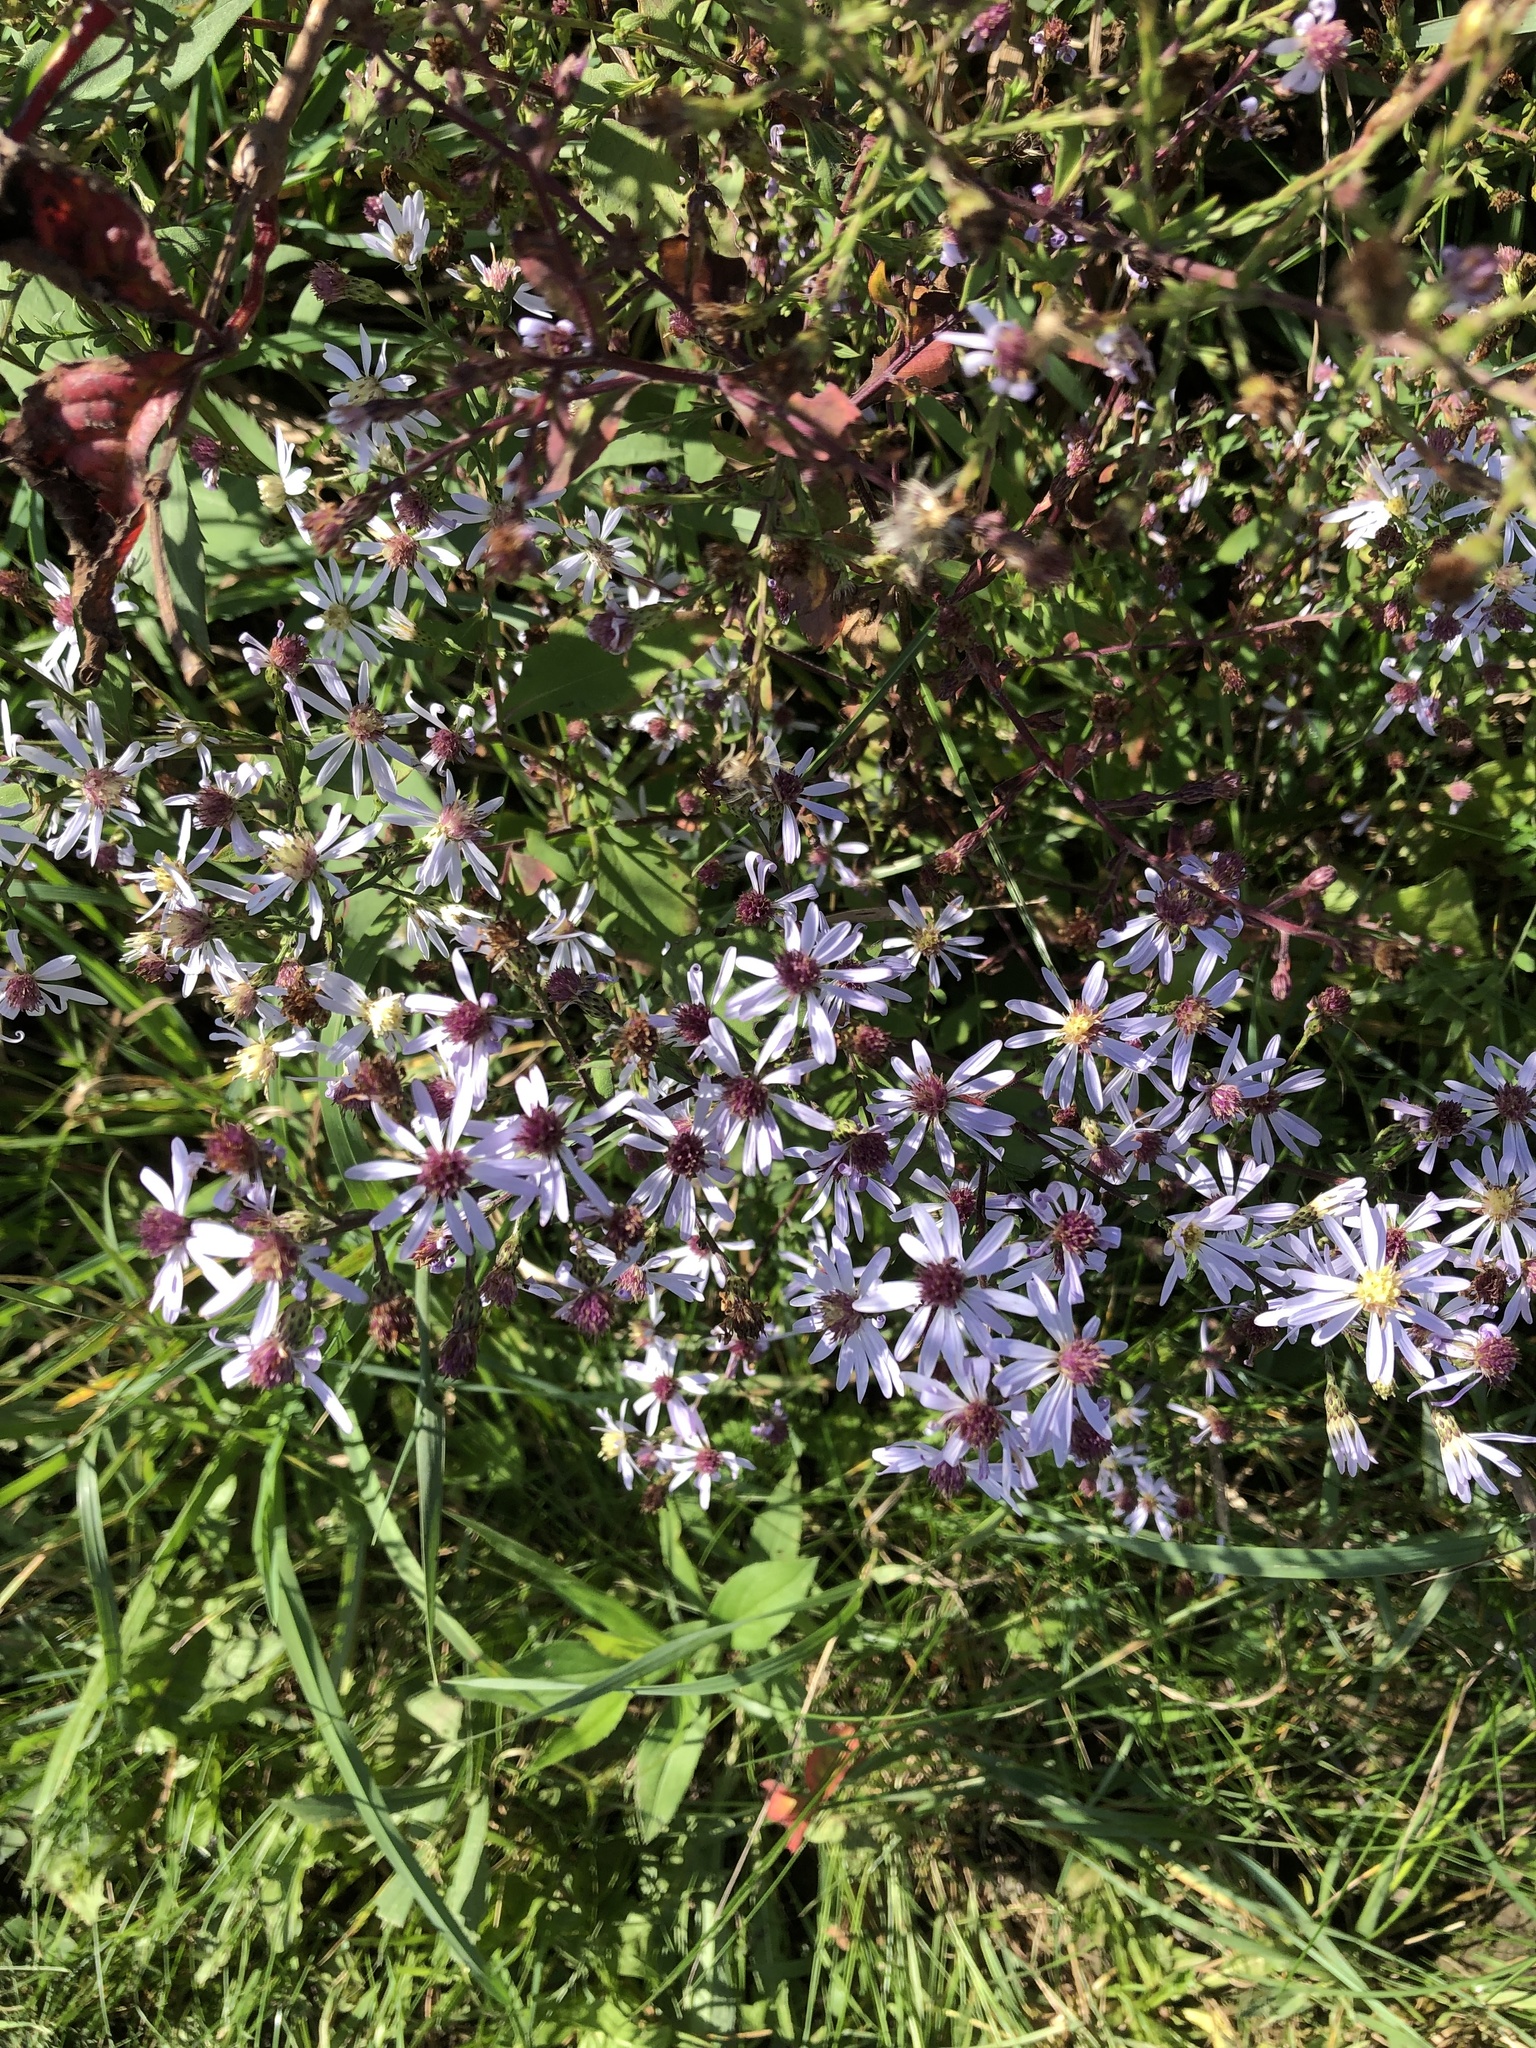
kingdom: Plantae
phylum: Tracheophyta
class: Magnoliopsida
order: Asterales
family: Asteraceae
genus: Symphyotrichum
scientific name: Symphyotrichum cordifolium
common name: Beeweed
